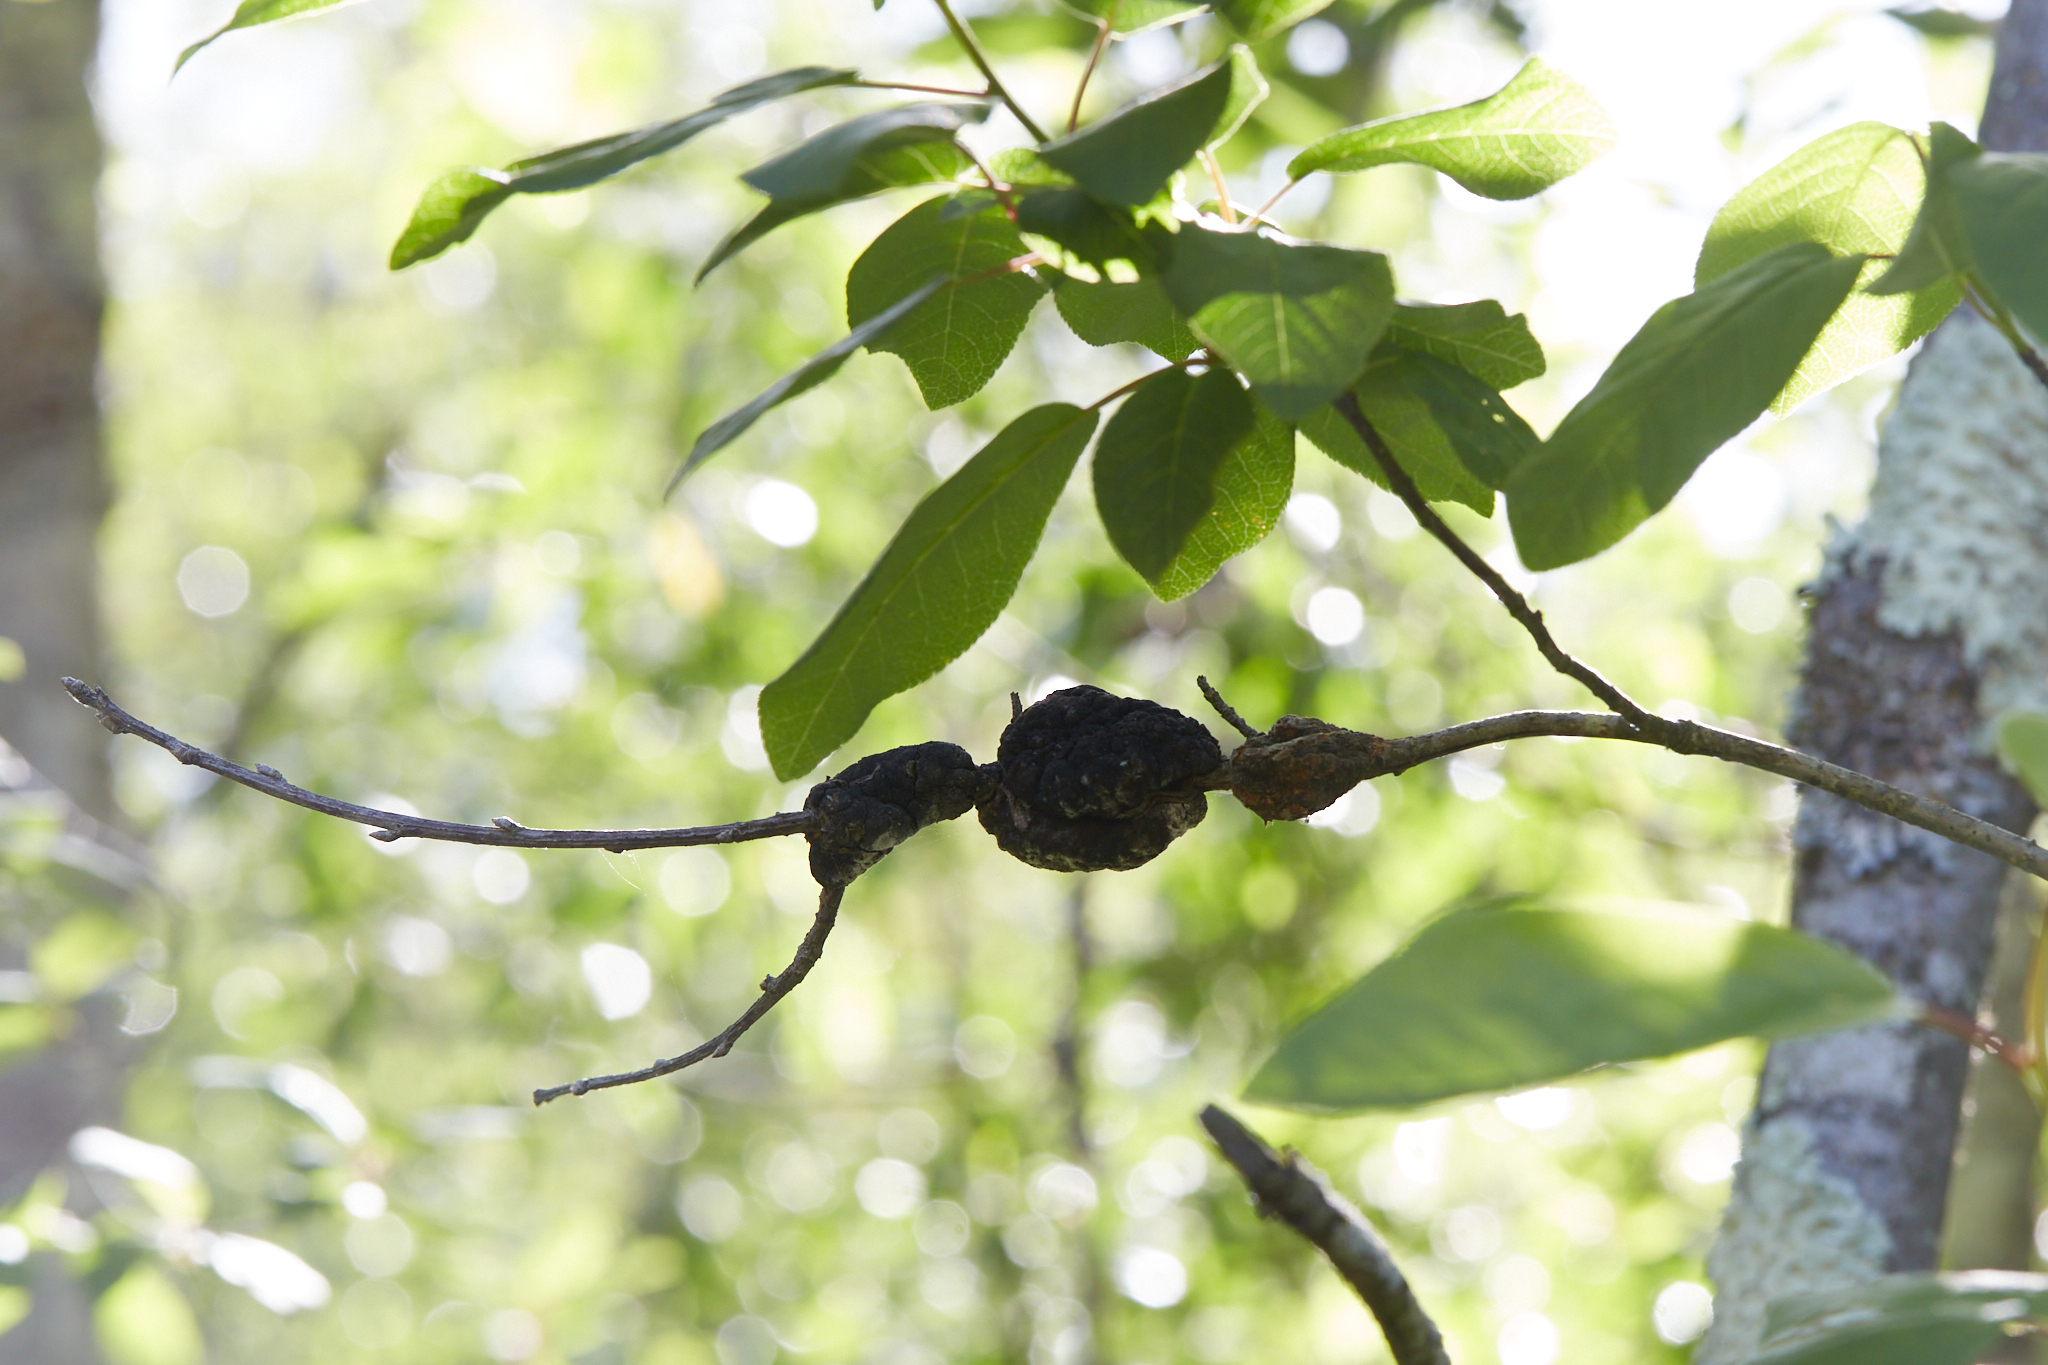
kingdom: Fungi
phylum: Ascomycota
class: Dothideomycetes
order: Venturiales
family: Venturiaceae
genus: Apiosporina
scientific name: Apiosporina morbosa
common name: Black knot
